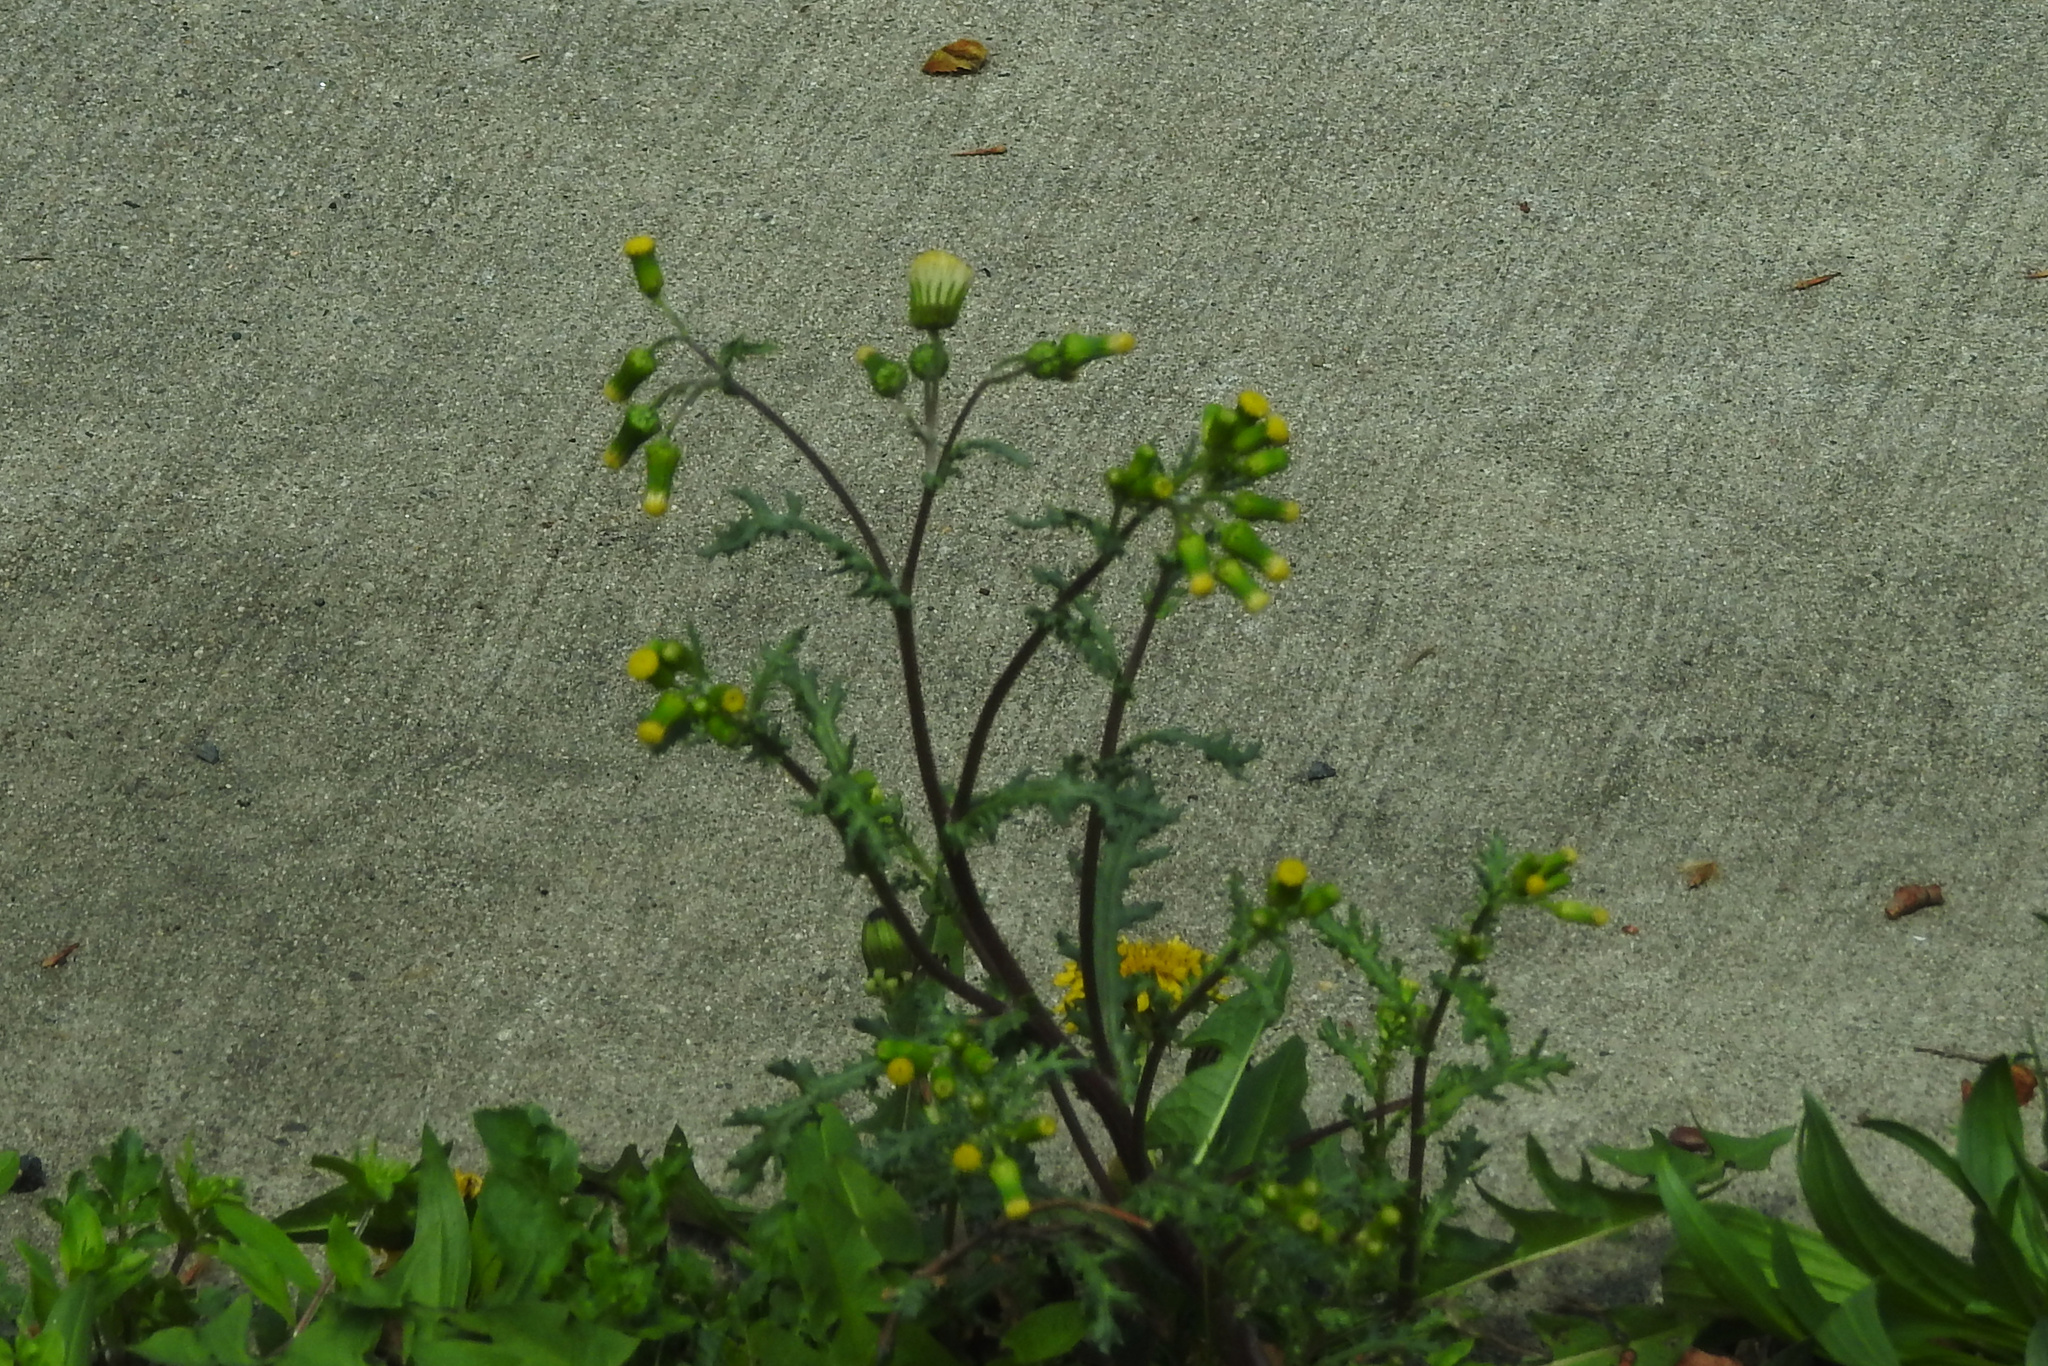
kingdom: Plantae
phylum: Tracheophyta
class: Magnoliopsida
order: Asterales
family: Asteraceae
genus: Senecio
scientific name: Senecio vulgaris
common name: Old-man-in-the-spring
